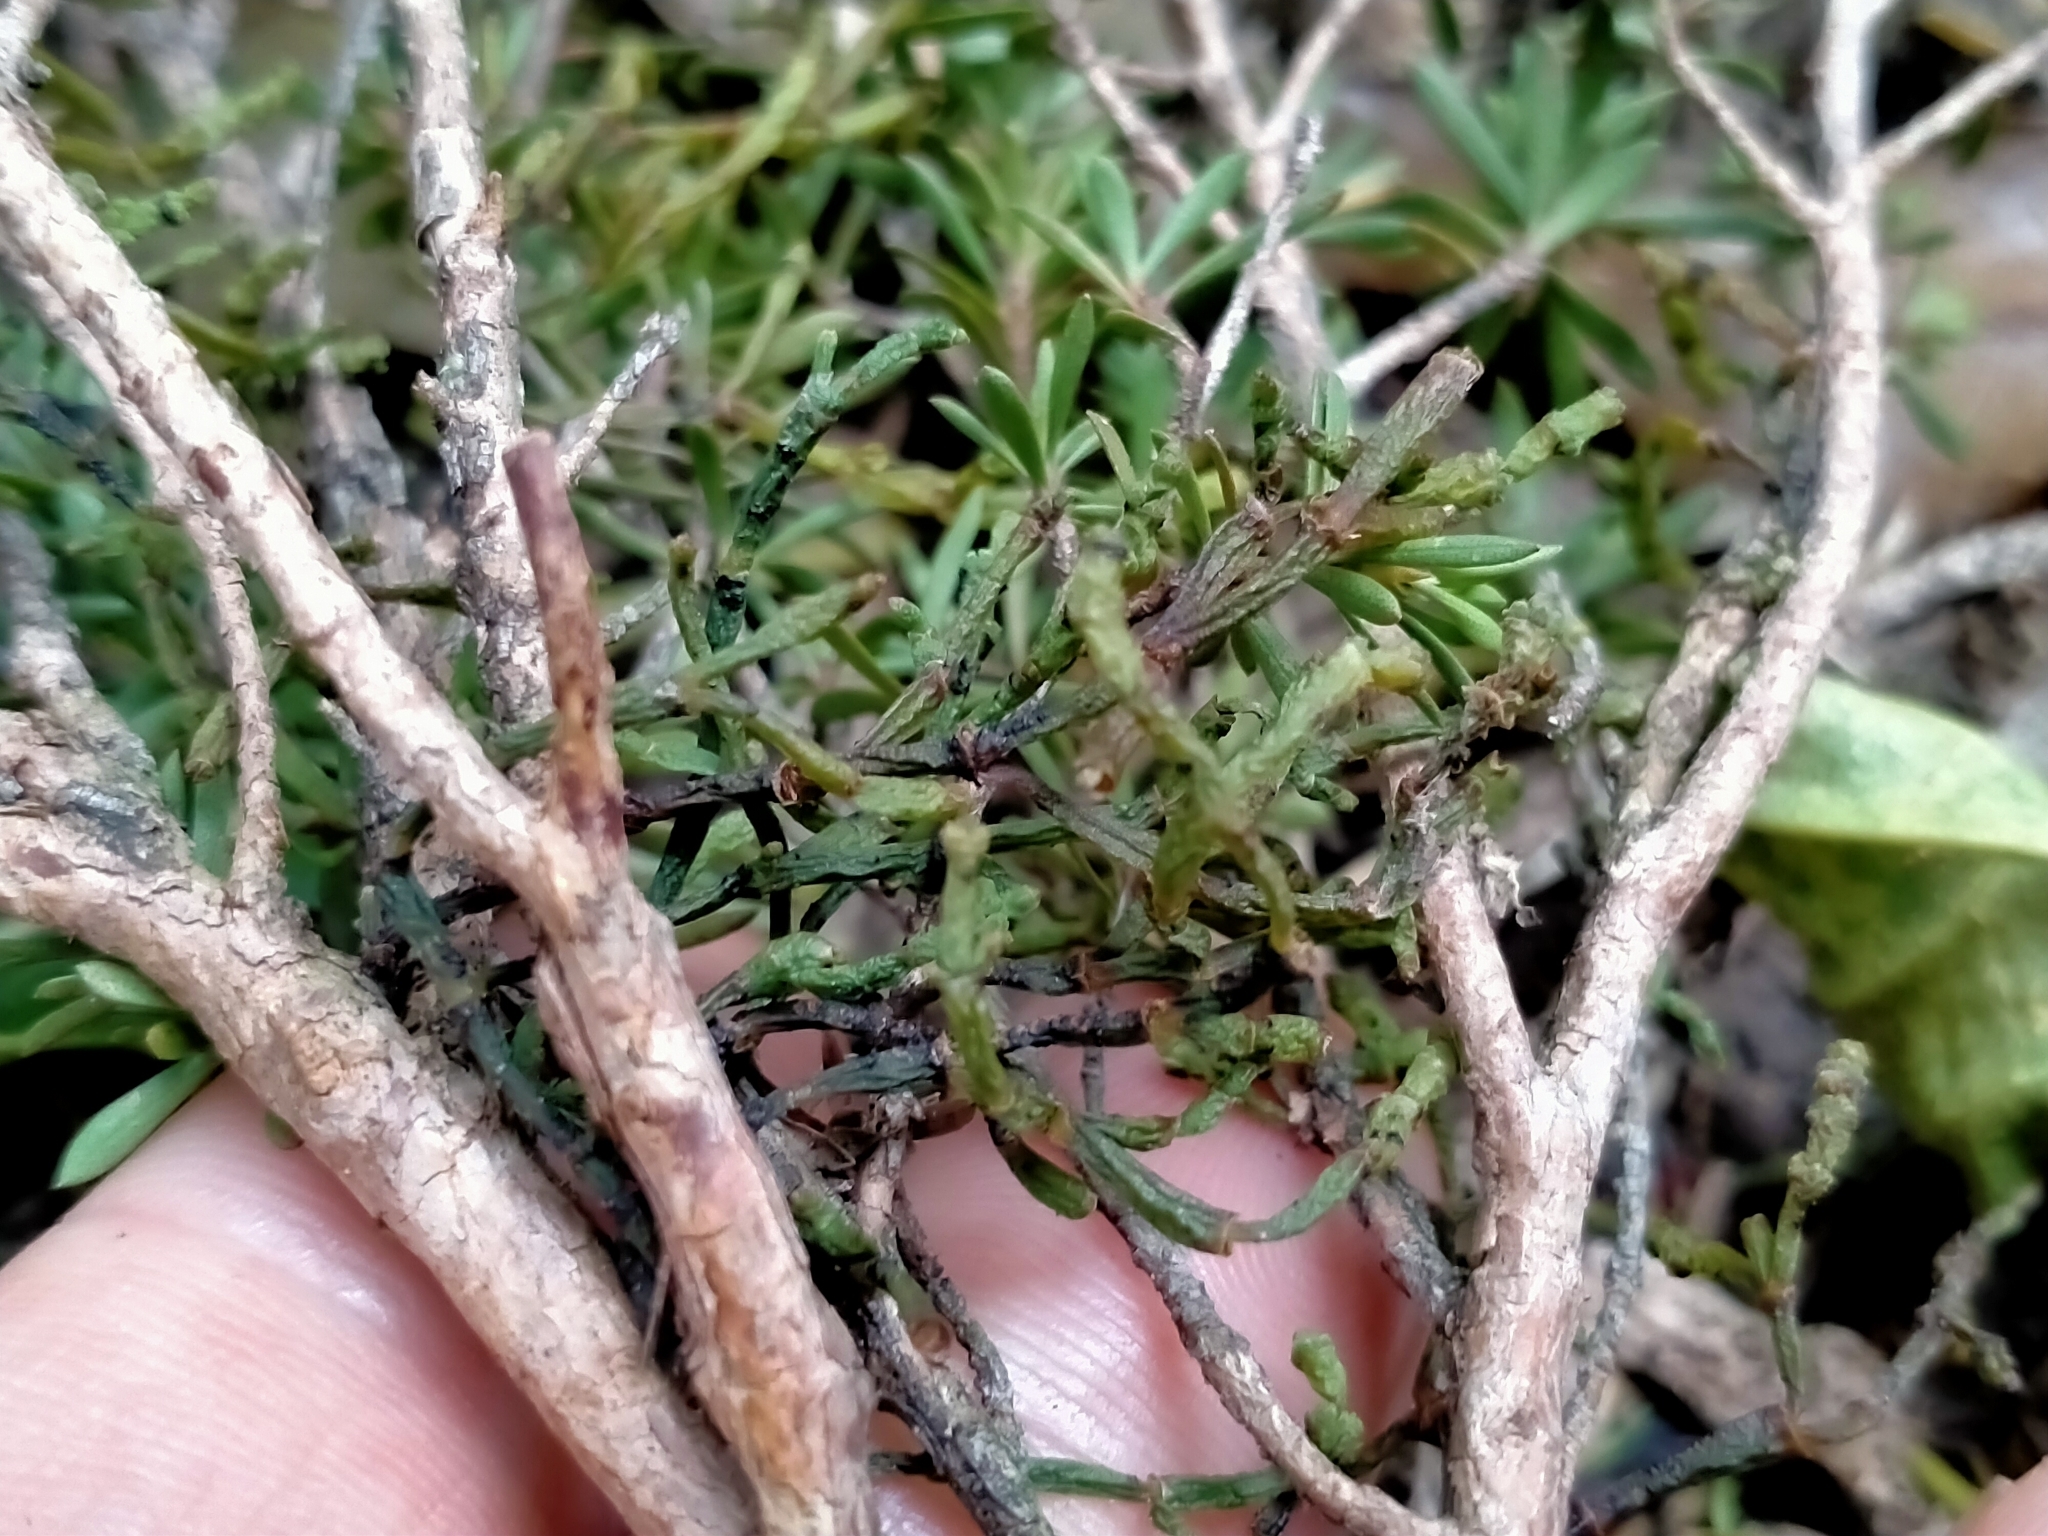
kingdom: Plantae
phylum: Tracheophyta
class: Magnoliopsida
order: Santalales
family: Viscaceae
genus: Korthalsella
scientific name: Korthalsella salicornioides
